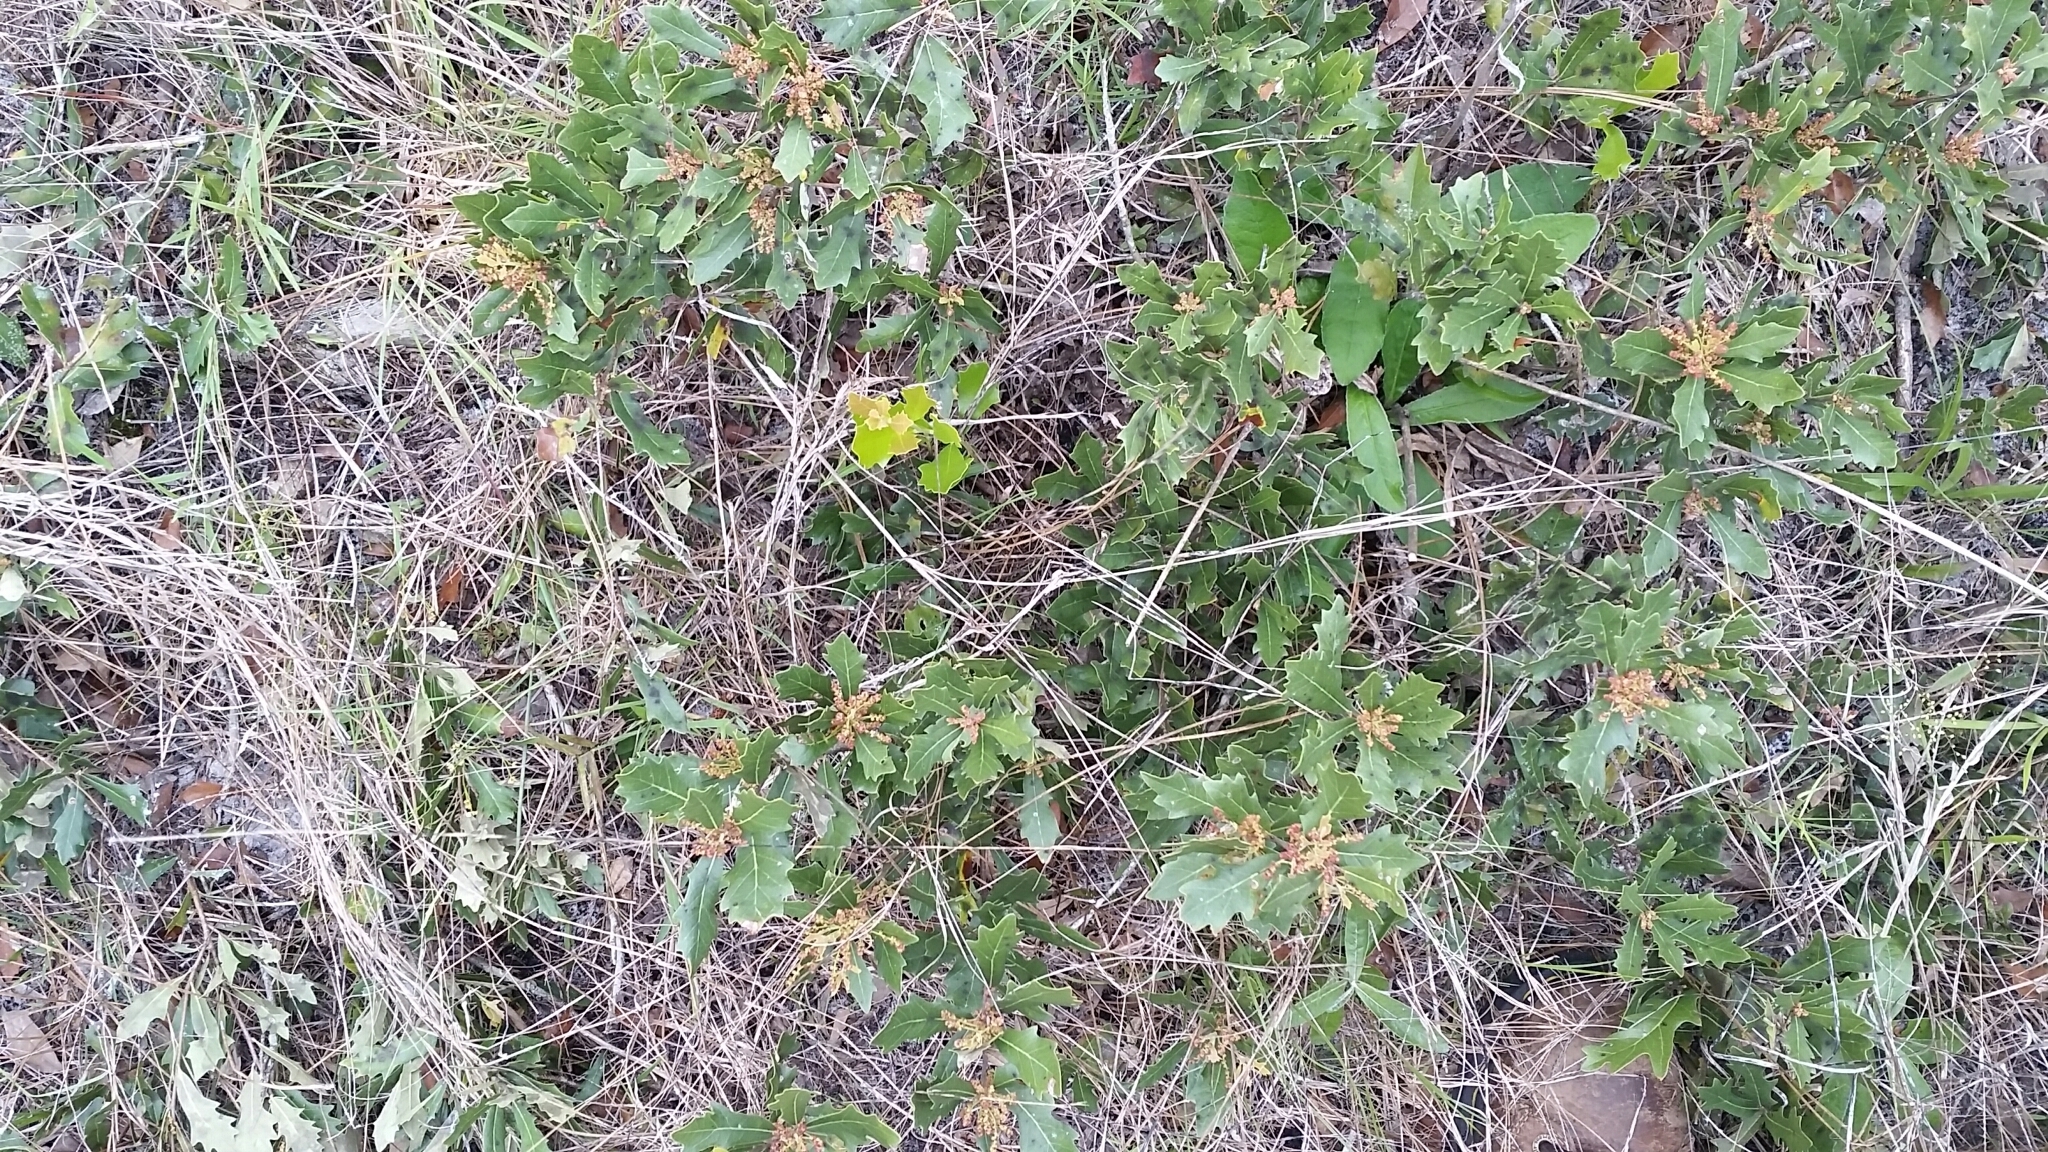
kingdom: Plantae
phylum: Tracheophyta
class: Magnoliopsida
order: Fagales
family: Fagaceae
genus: Quercus
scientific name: Quercus minima
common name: Dwarf live oak
